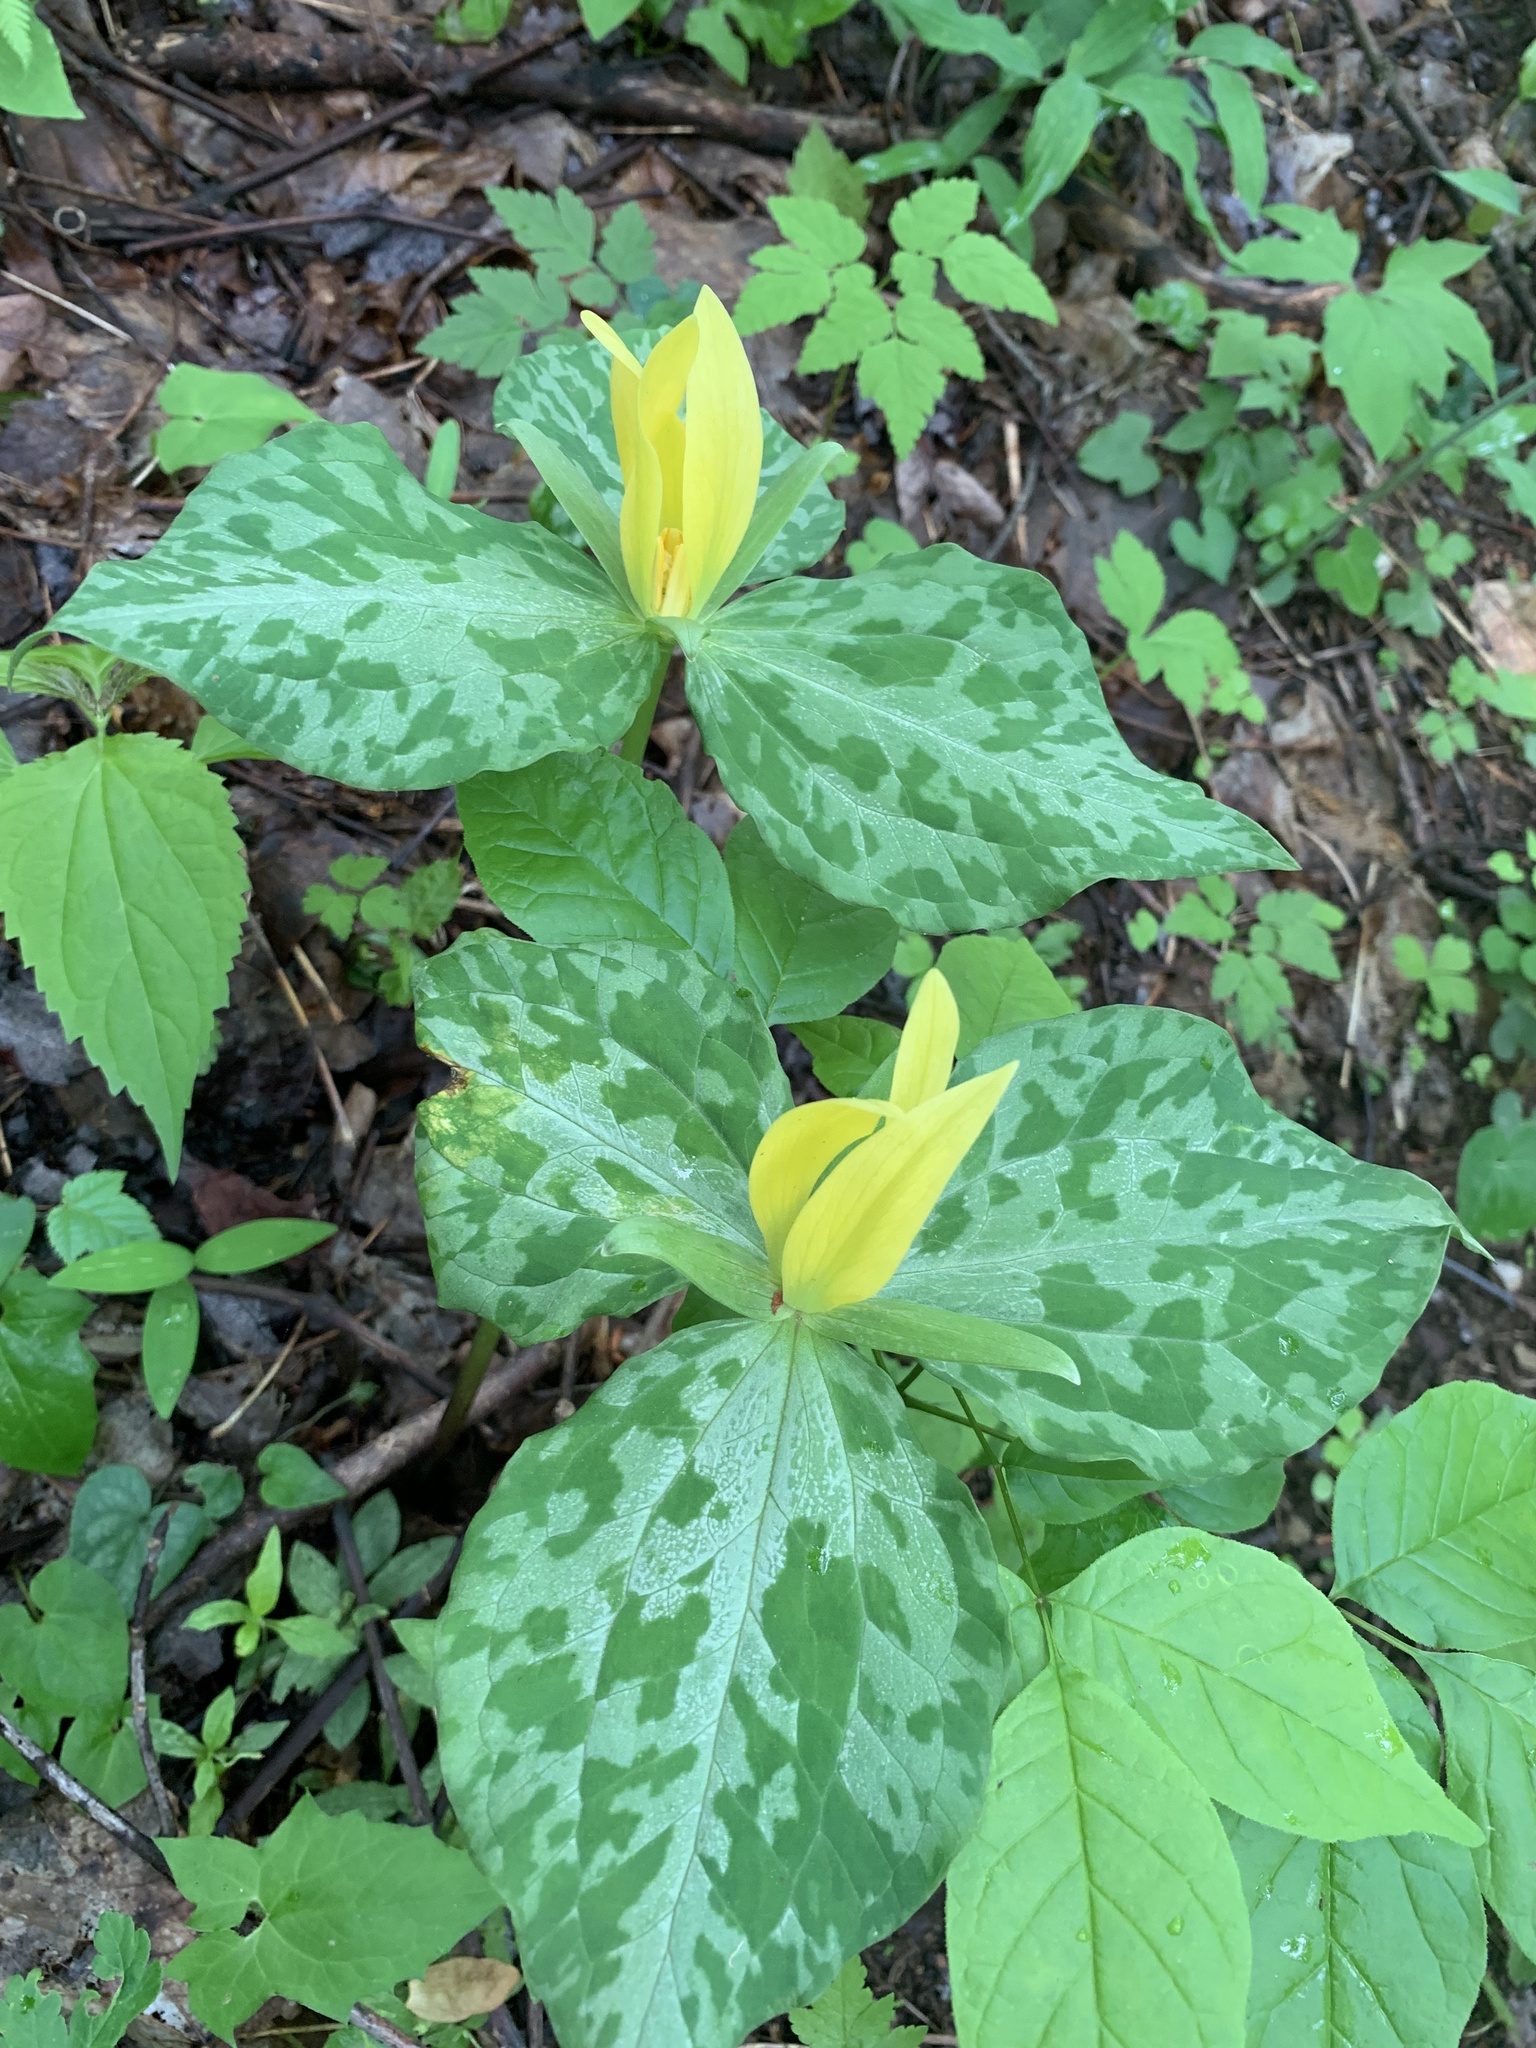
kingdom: Plantae
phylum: Tracheophyta
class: Liliopsida
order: Liliales
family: Melanthiaceae
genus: Trillium
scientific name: Trillium luteum
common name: Wax trillium
